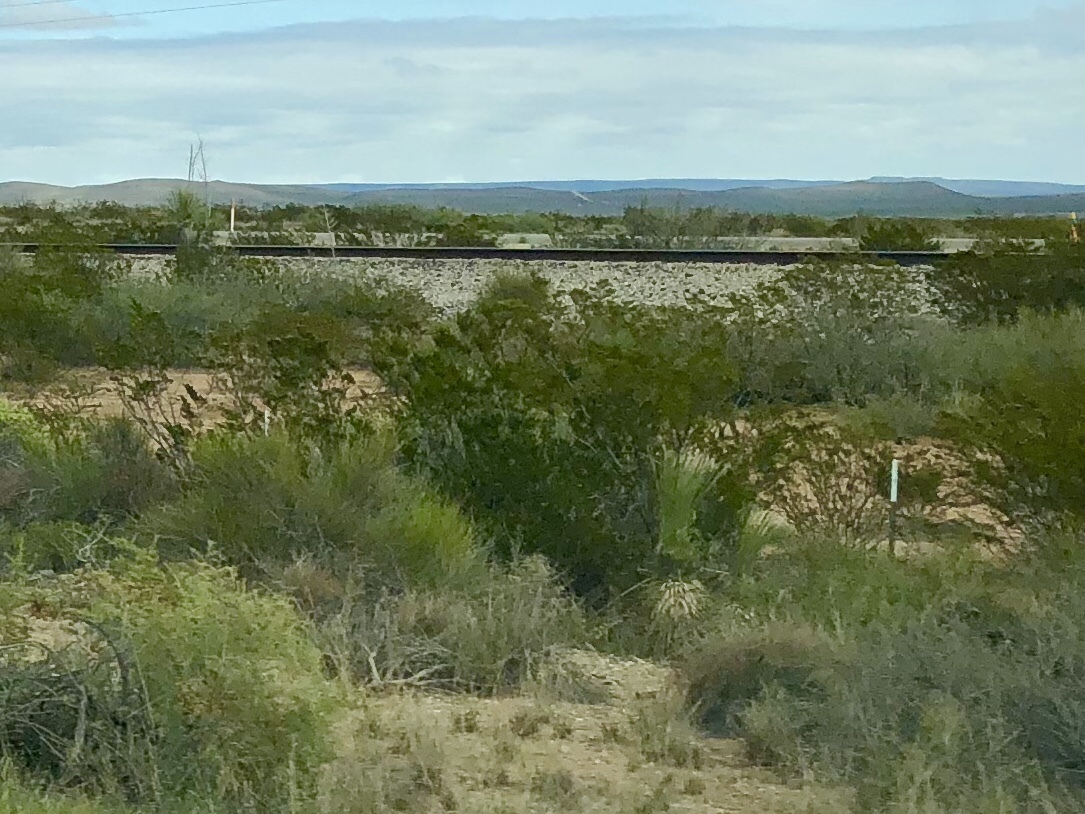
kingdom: Plantae
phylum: Tracheophyta
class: Magnoliopsida
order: Zygophyllales
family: Zygophyllaceae
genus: Larrea
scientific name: Larrea tridentata
